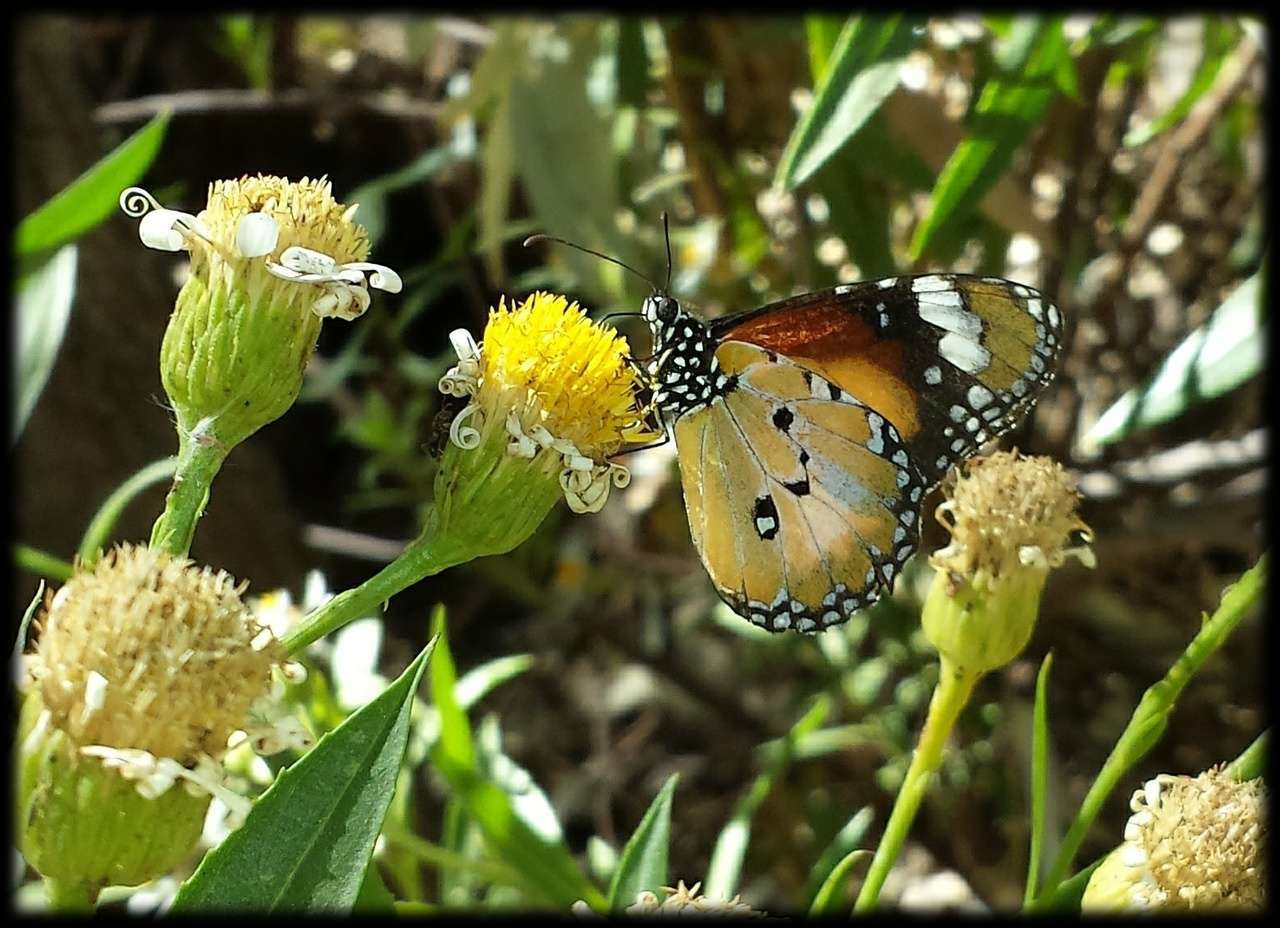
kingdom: Animalia
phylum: Arthropoda
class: Insecta
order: Lepidoptera
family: Nymphalidae
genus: Danaus
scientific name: Danaus chrysippus
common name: Plain tiger
